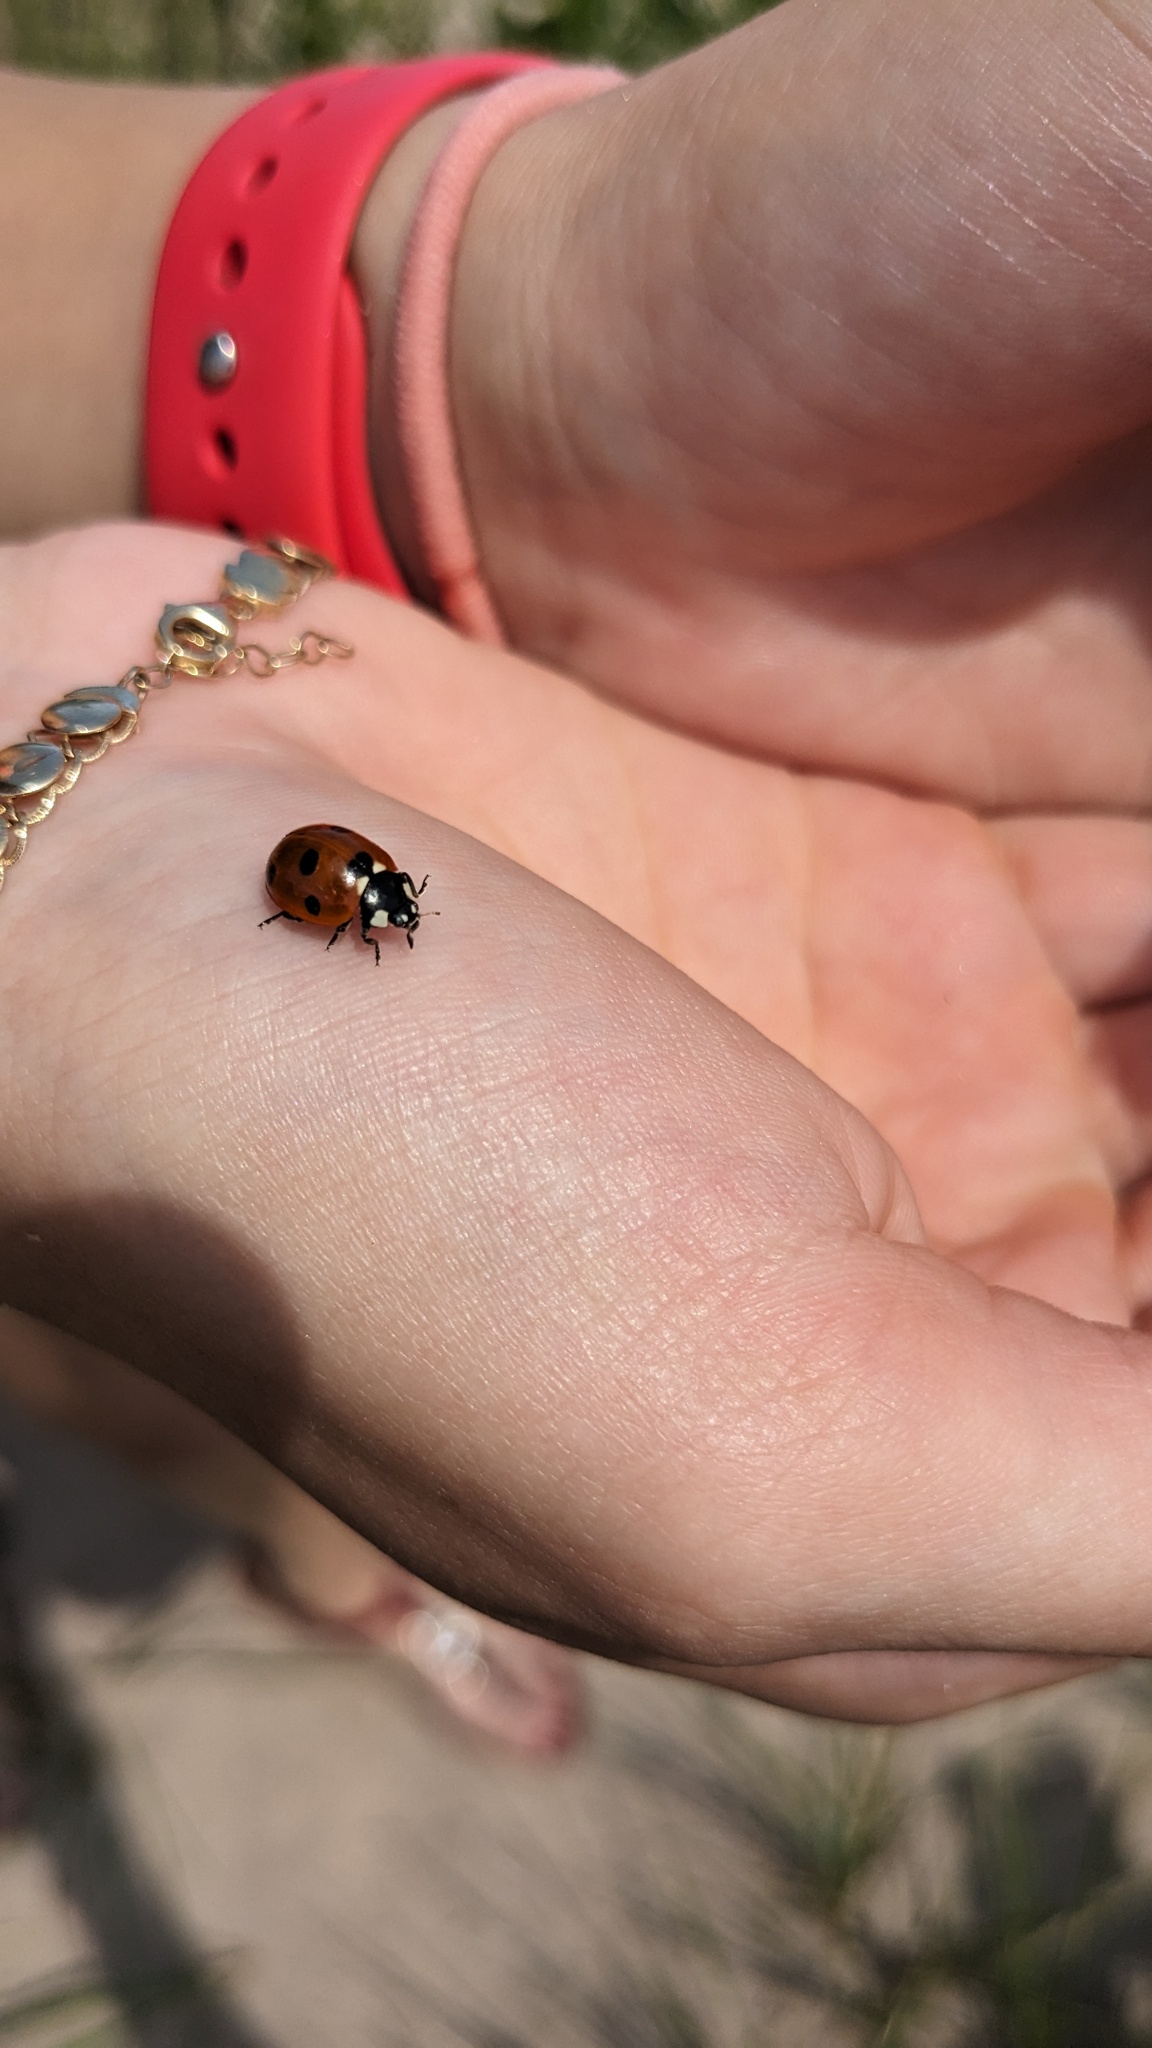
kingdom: Animalia
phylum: Arthropoda
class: Insecta
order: Coleoptera
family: Coccinellidae
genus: Coccinella
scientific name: Coccinella septempunctata
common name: Sevenspotted lady beetle
